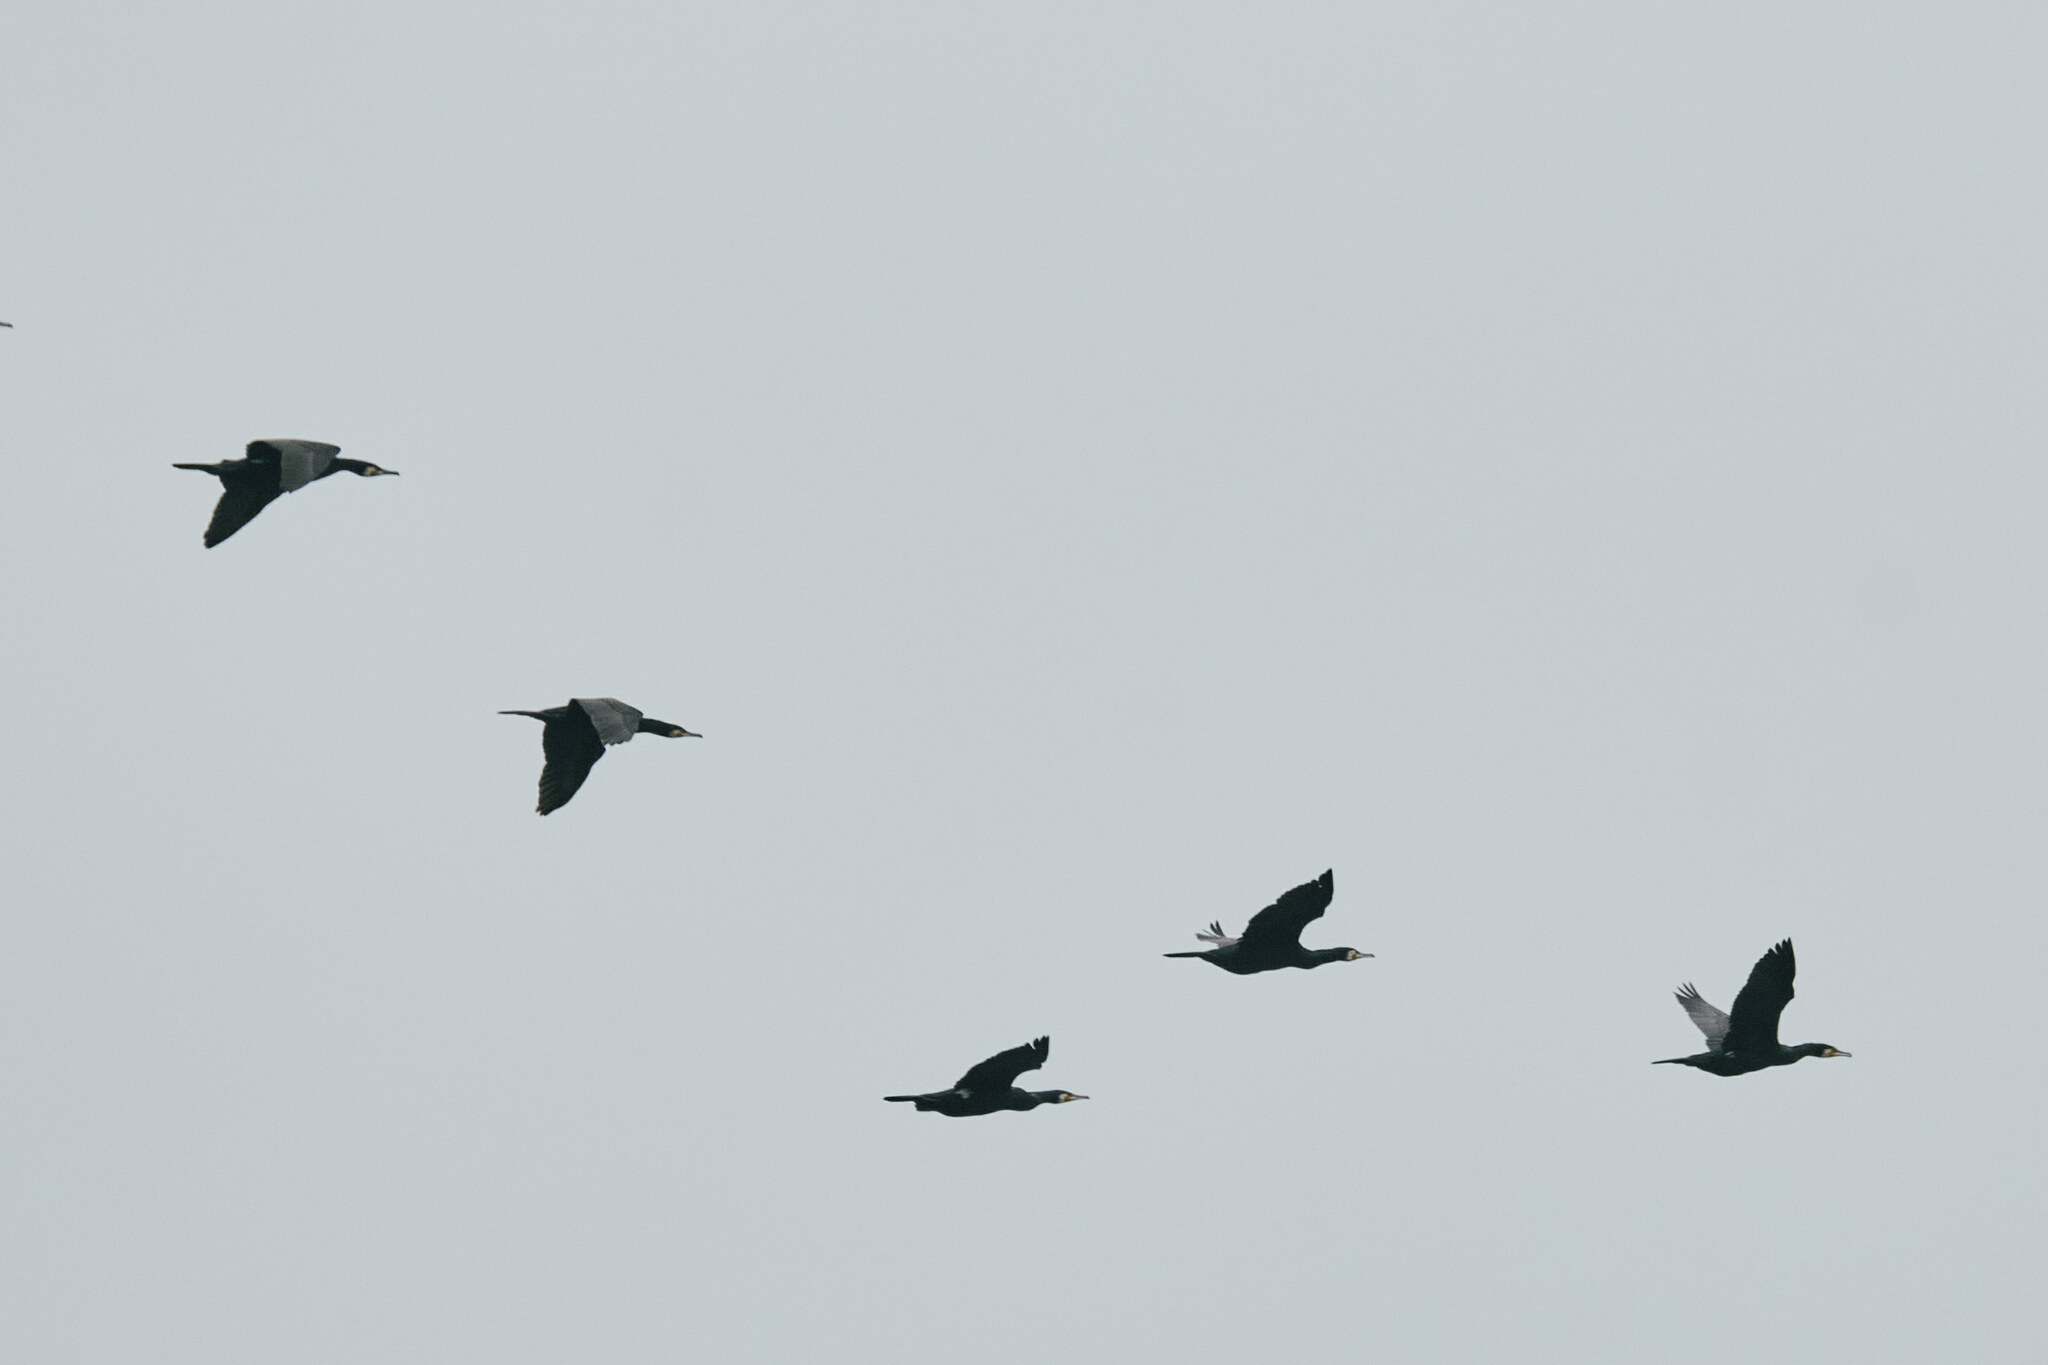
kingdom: Animalia
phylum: Chordata
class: Aves
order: Suliformes
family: Phalacrocoracidae
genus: Phalacrocorax
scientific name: Phalacrocorax carbo
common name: Great cormorant
